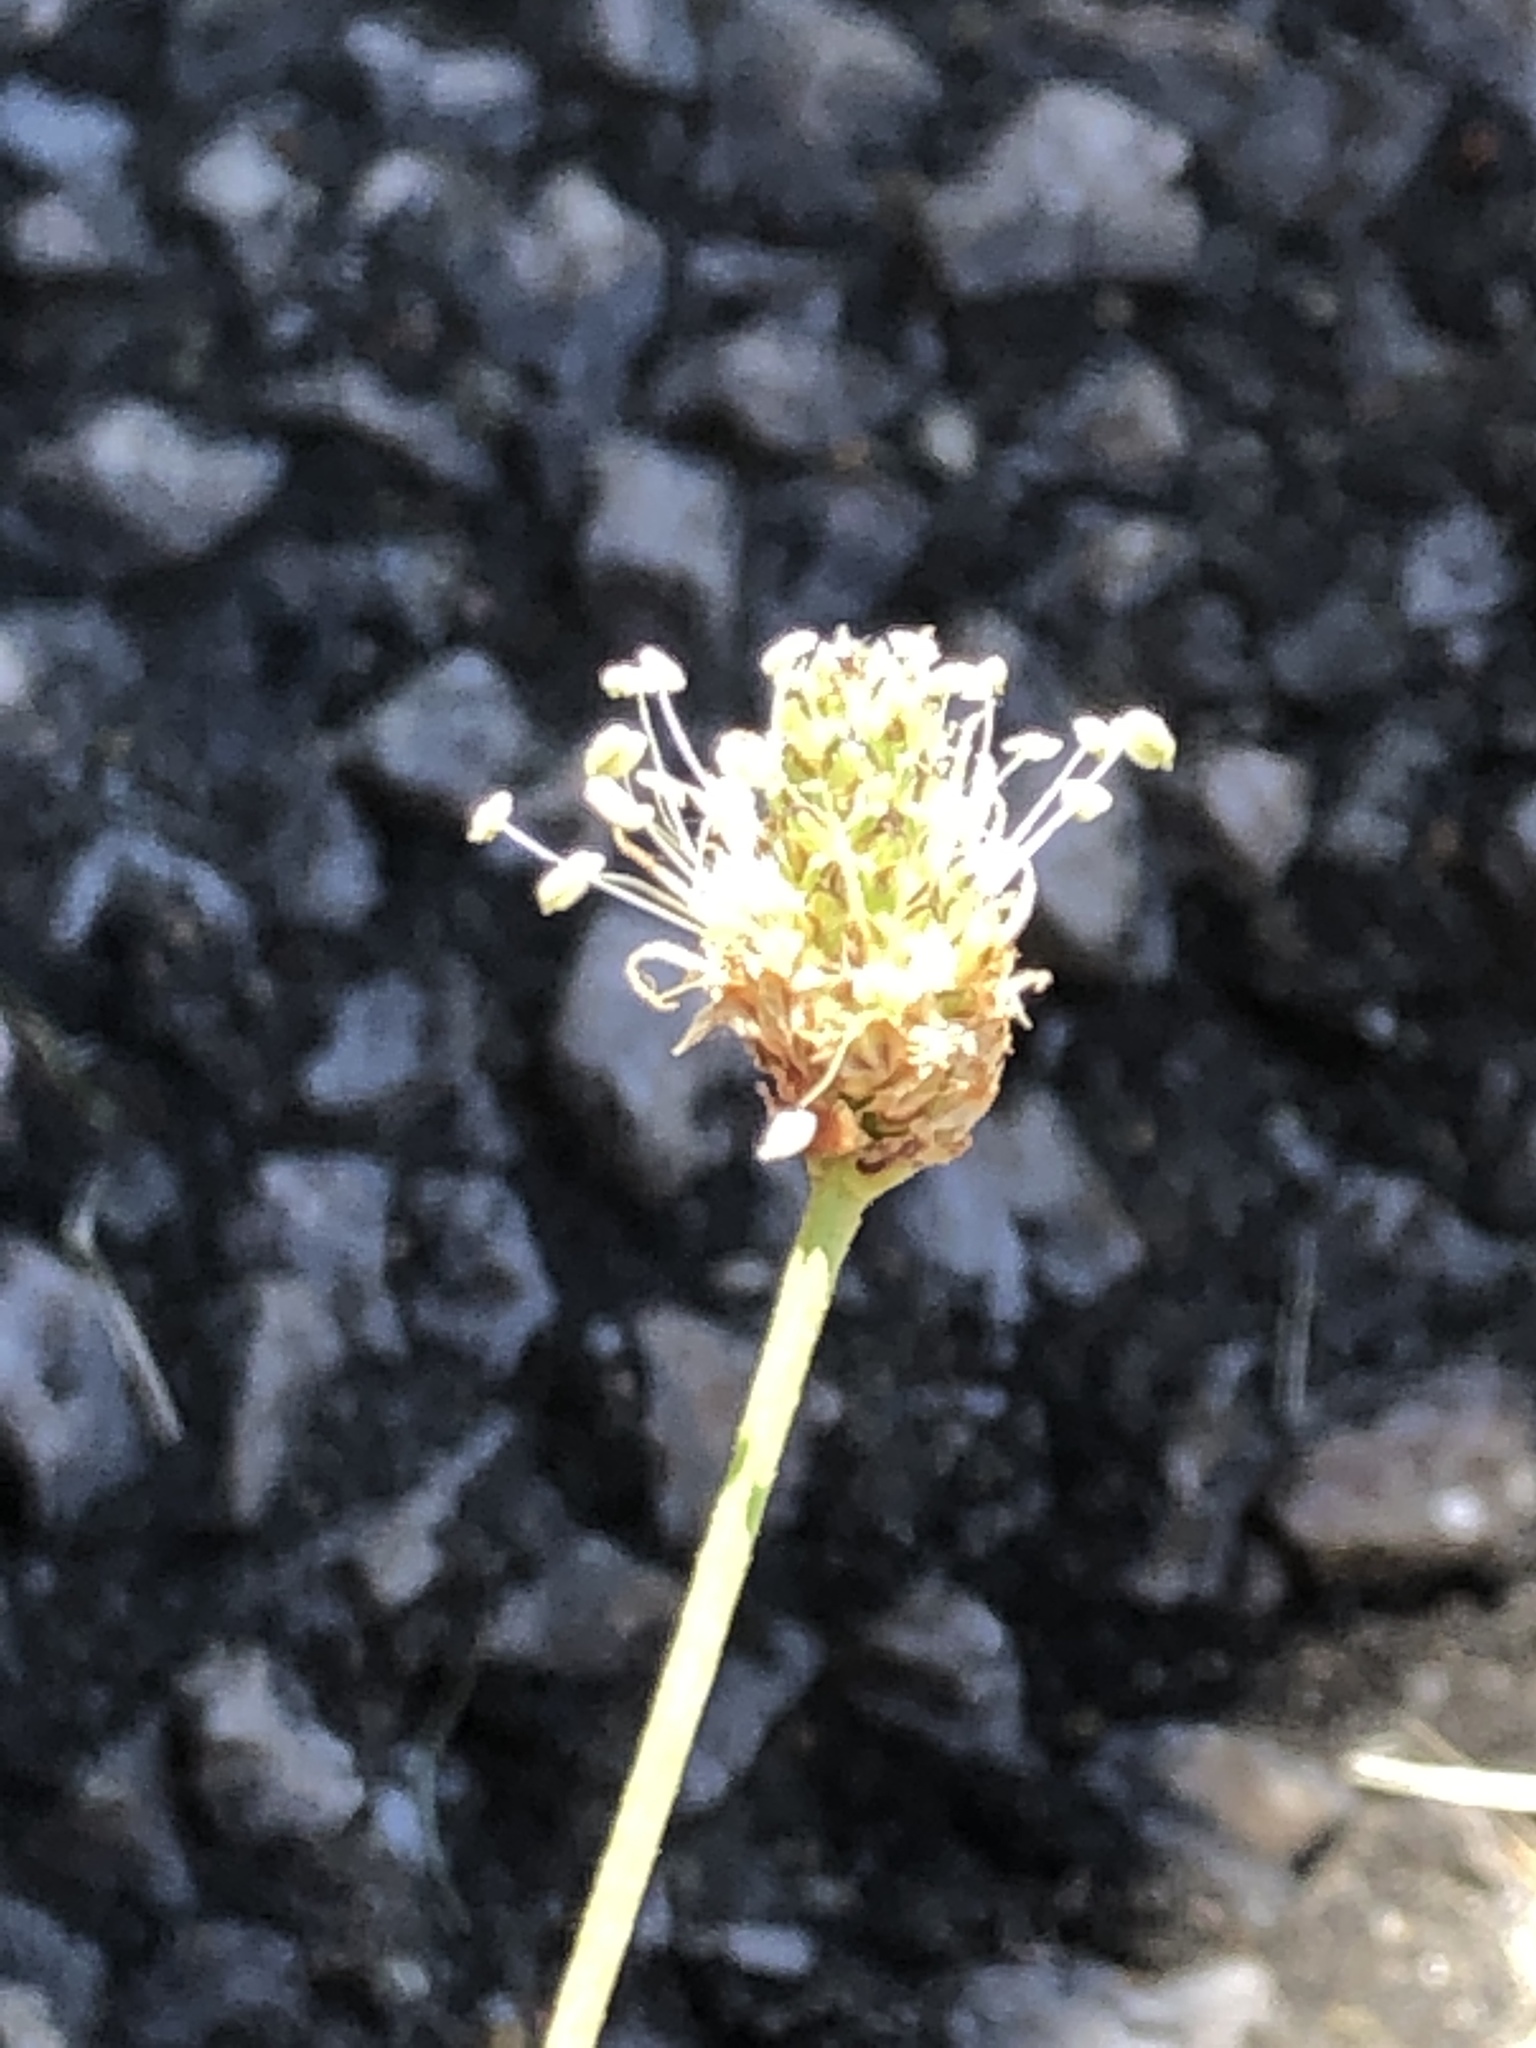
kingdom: Plantae
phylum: Tracheophyta
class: Magnoliopsida
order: Lamiales
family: Plantaginaceae
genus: Plantago
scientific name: Plantago lanceolata
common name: Ribwort plantain
